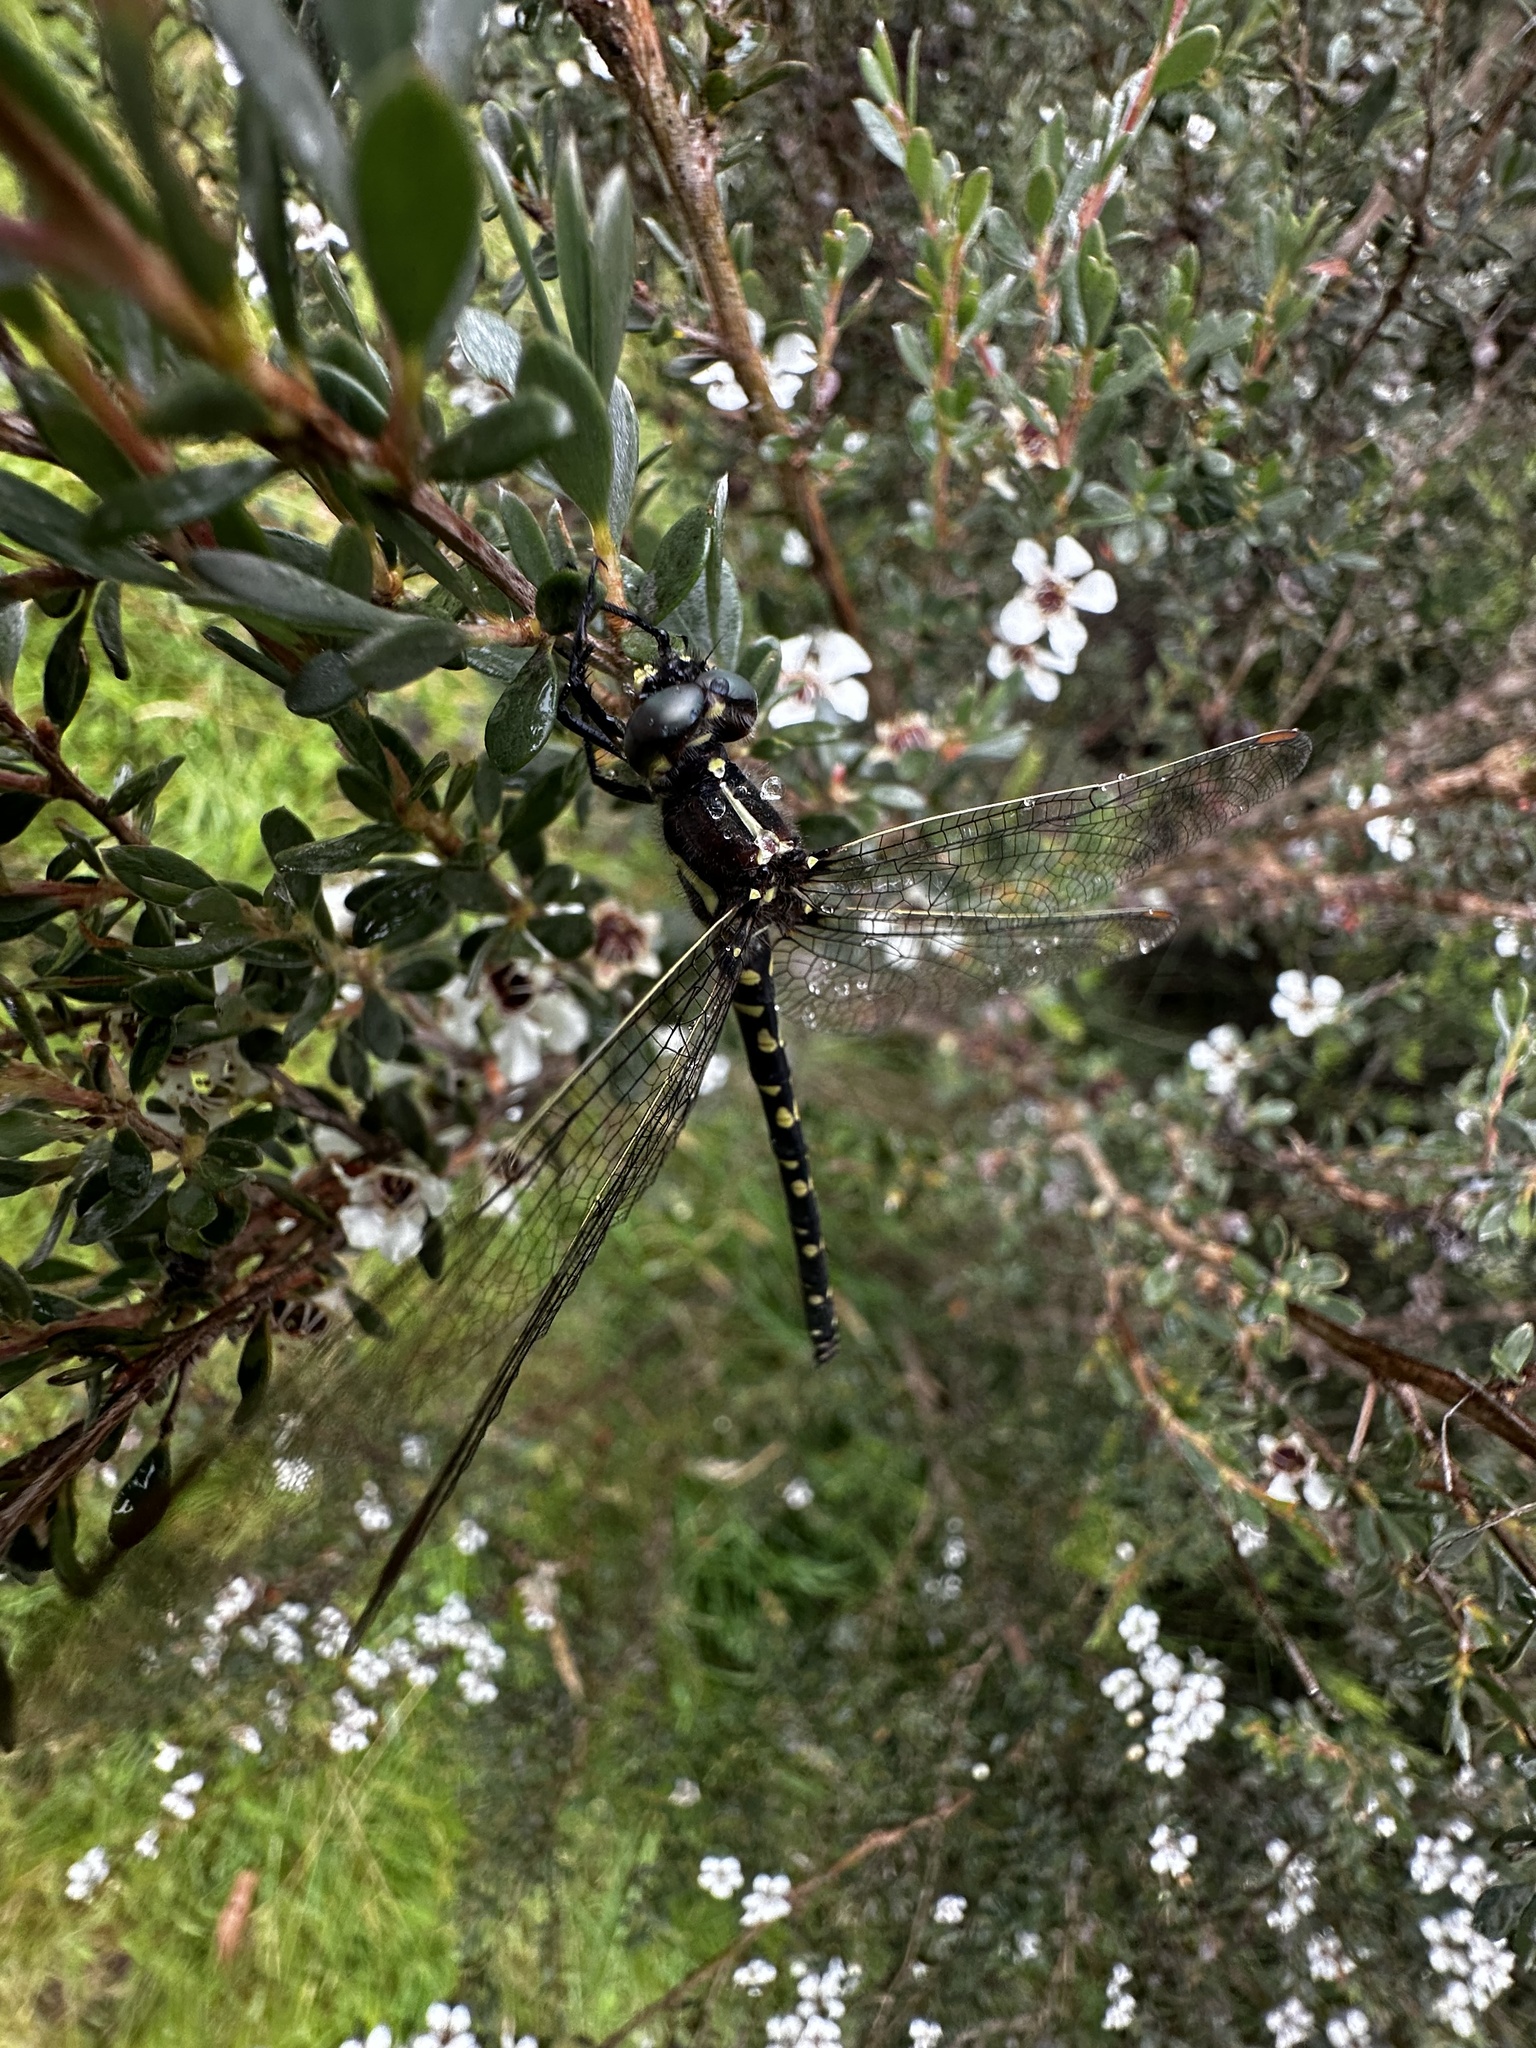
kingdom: Animalia
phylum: Arthropoda
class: Insecta
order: Odonata
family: Synthemistidae
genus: Synthemis
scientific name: Synthemis eustalacta
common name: Swamp tigertail
